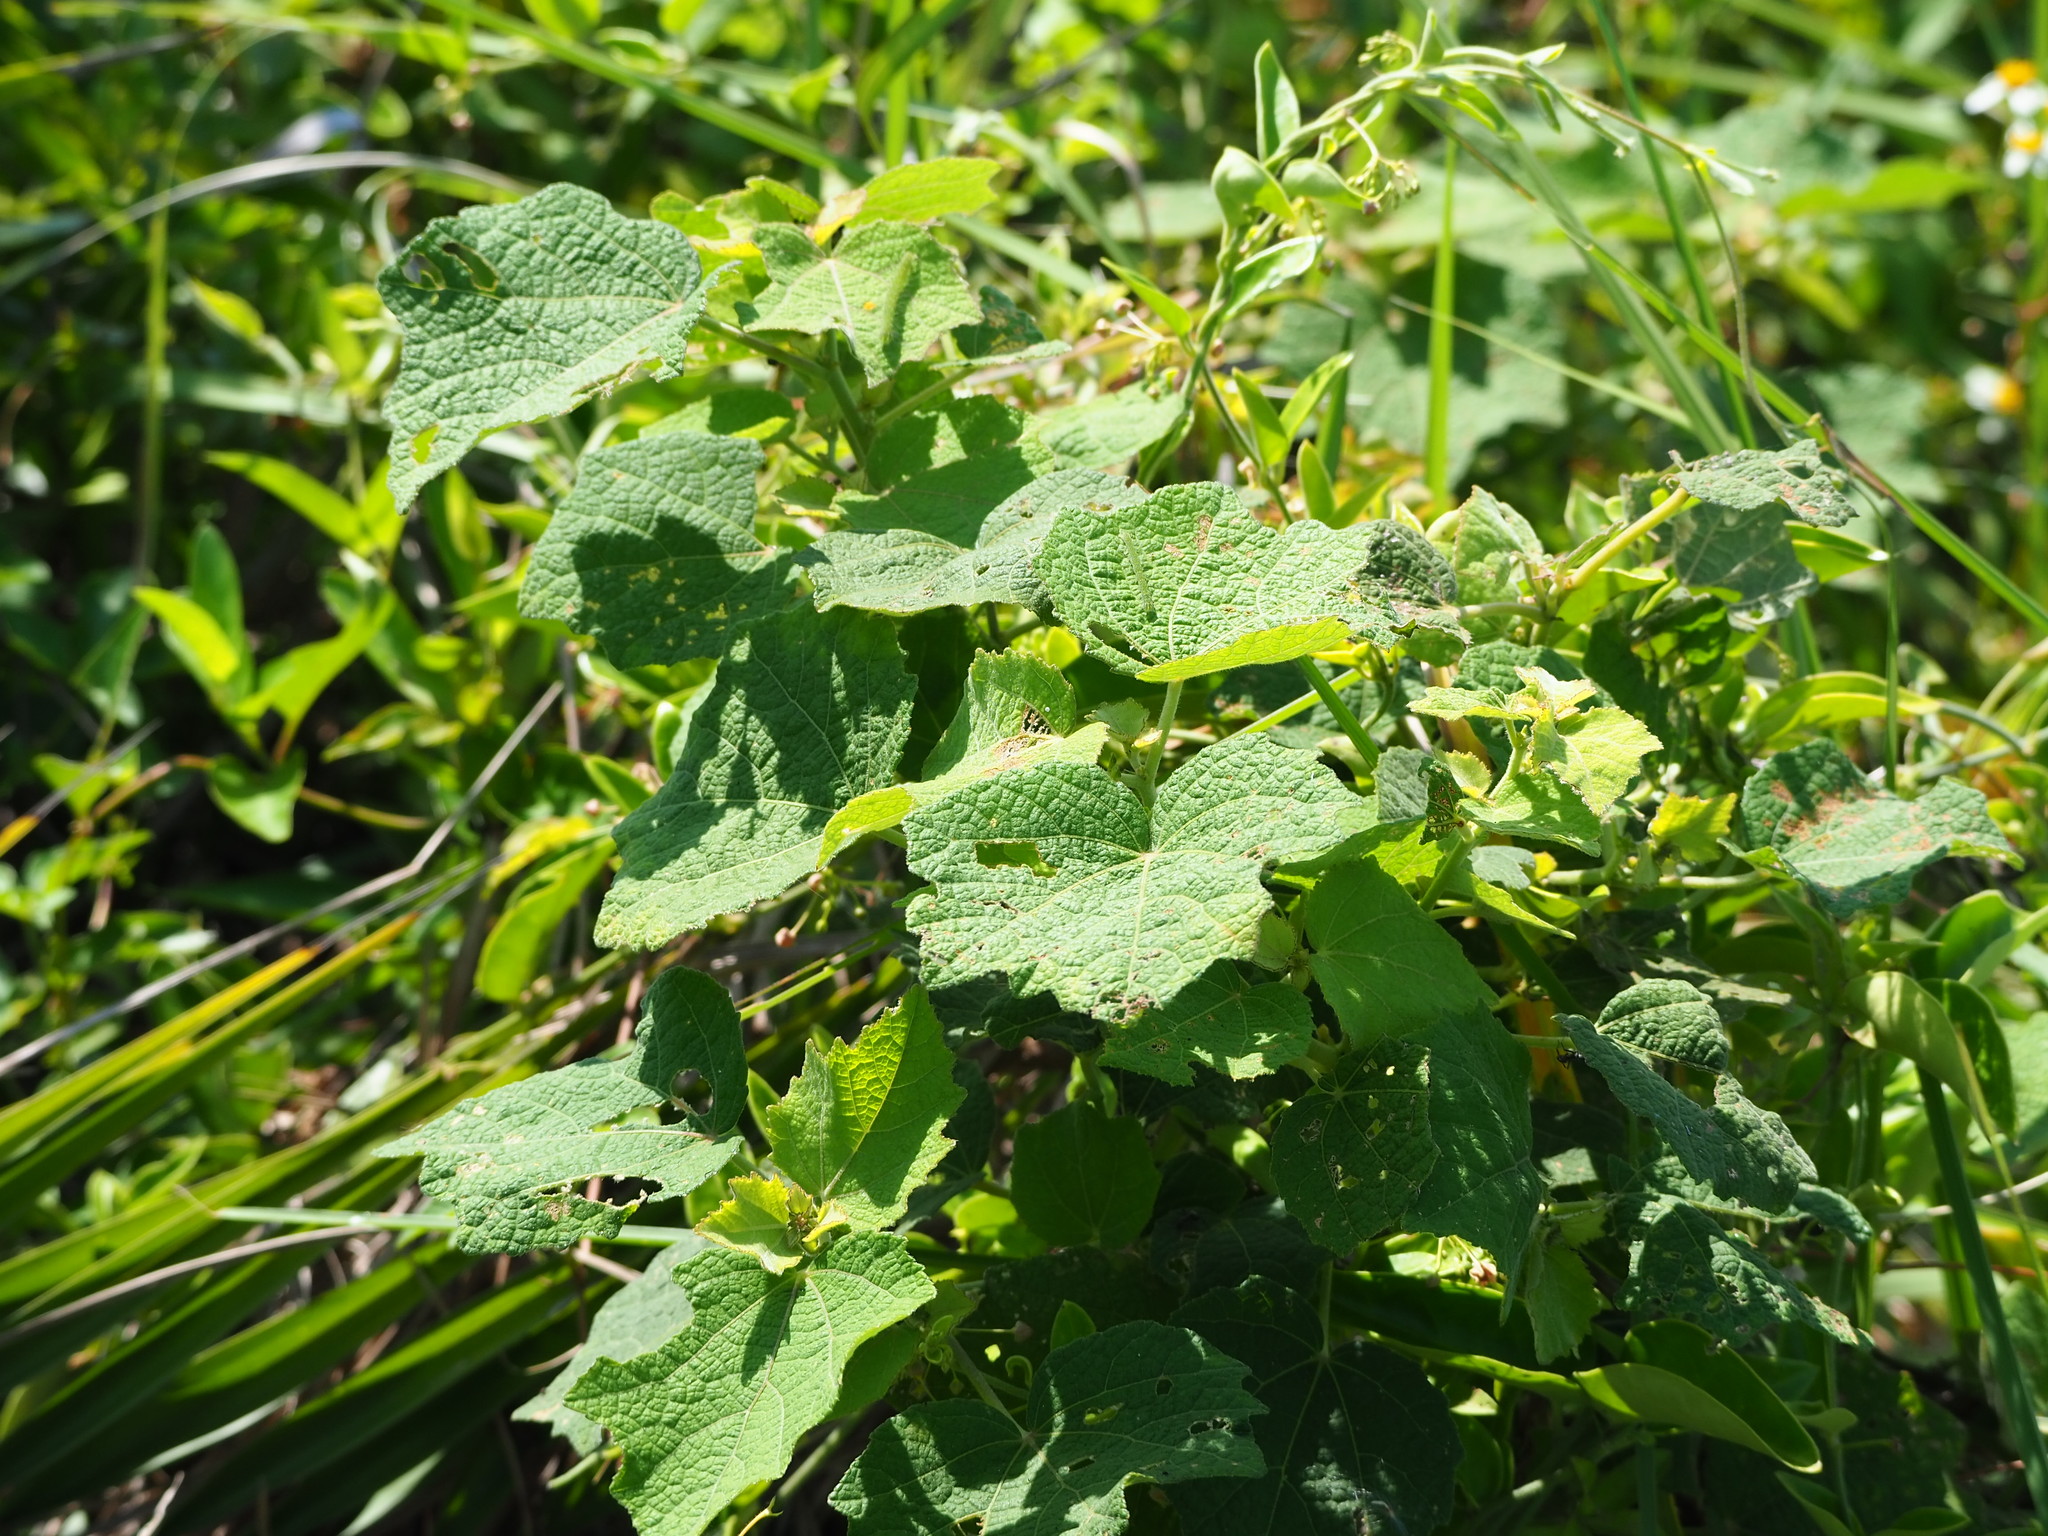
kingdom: Plantae
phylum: Tracheophyta
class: Magnoliopsida
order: Malvales
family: Malvaceae
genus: Urena
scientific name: Urena lobata
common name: Caesarweed
